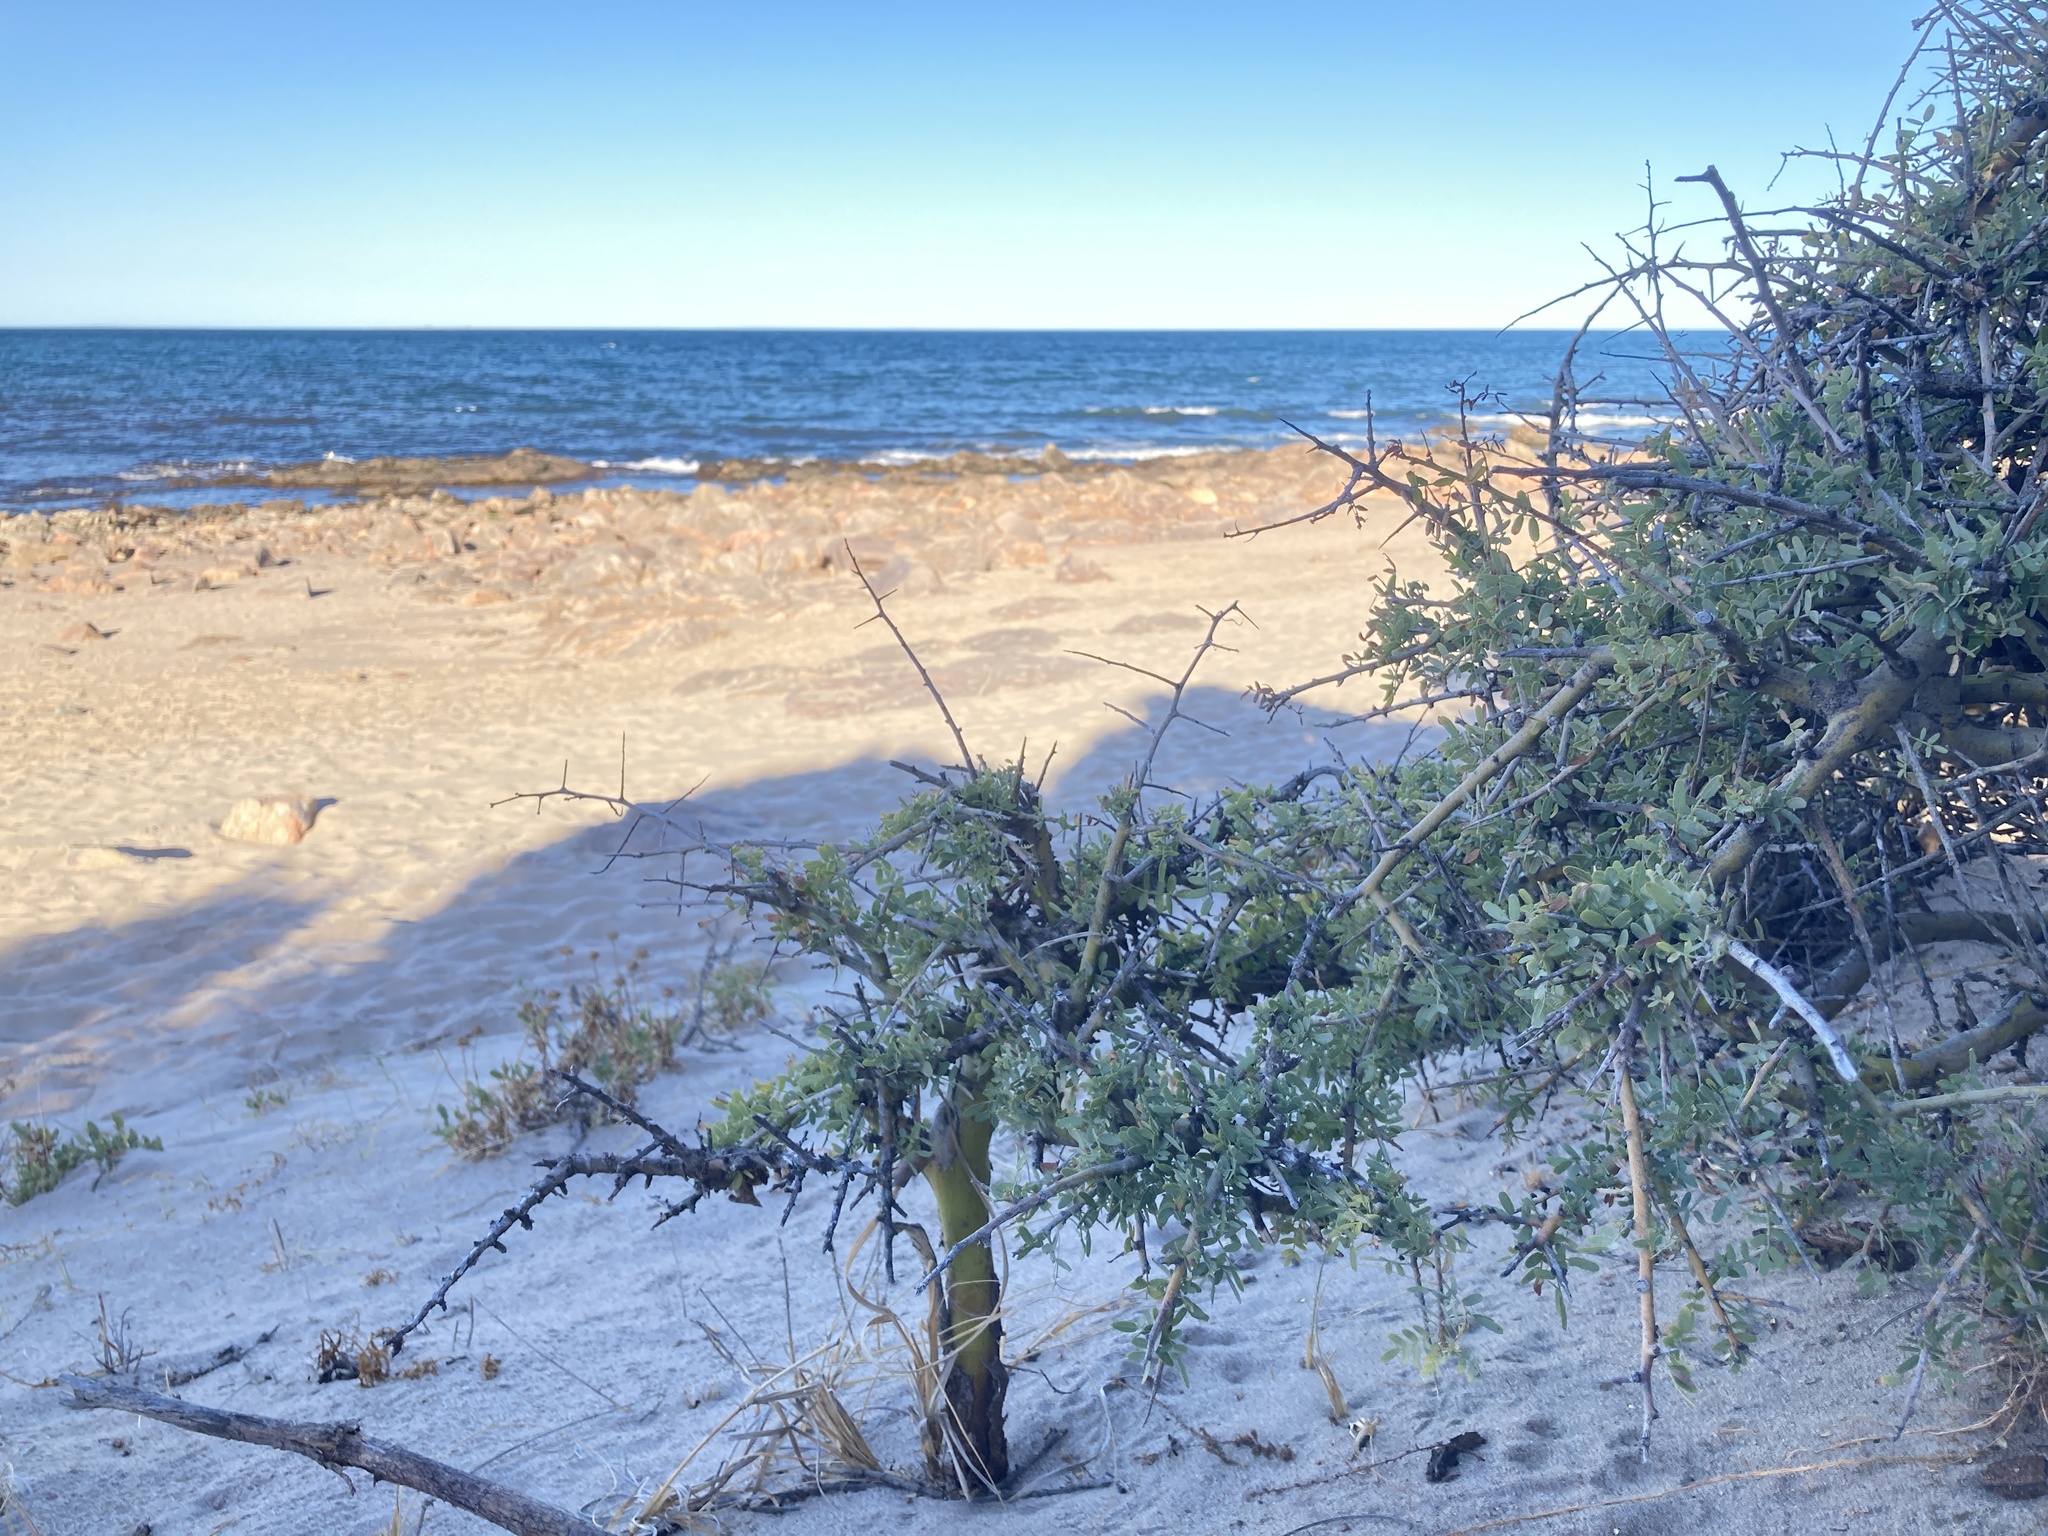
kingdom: Plantae
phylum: Tracheophyta
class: Magnoliopsida
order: Fabales
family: Fabaceae
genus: Geoffroea
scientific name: Geoffroea decorticans
